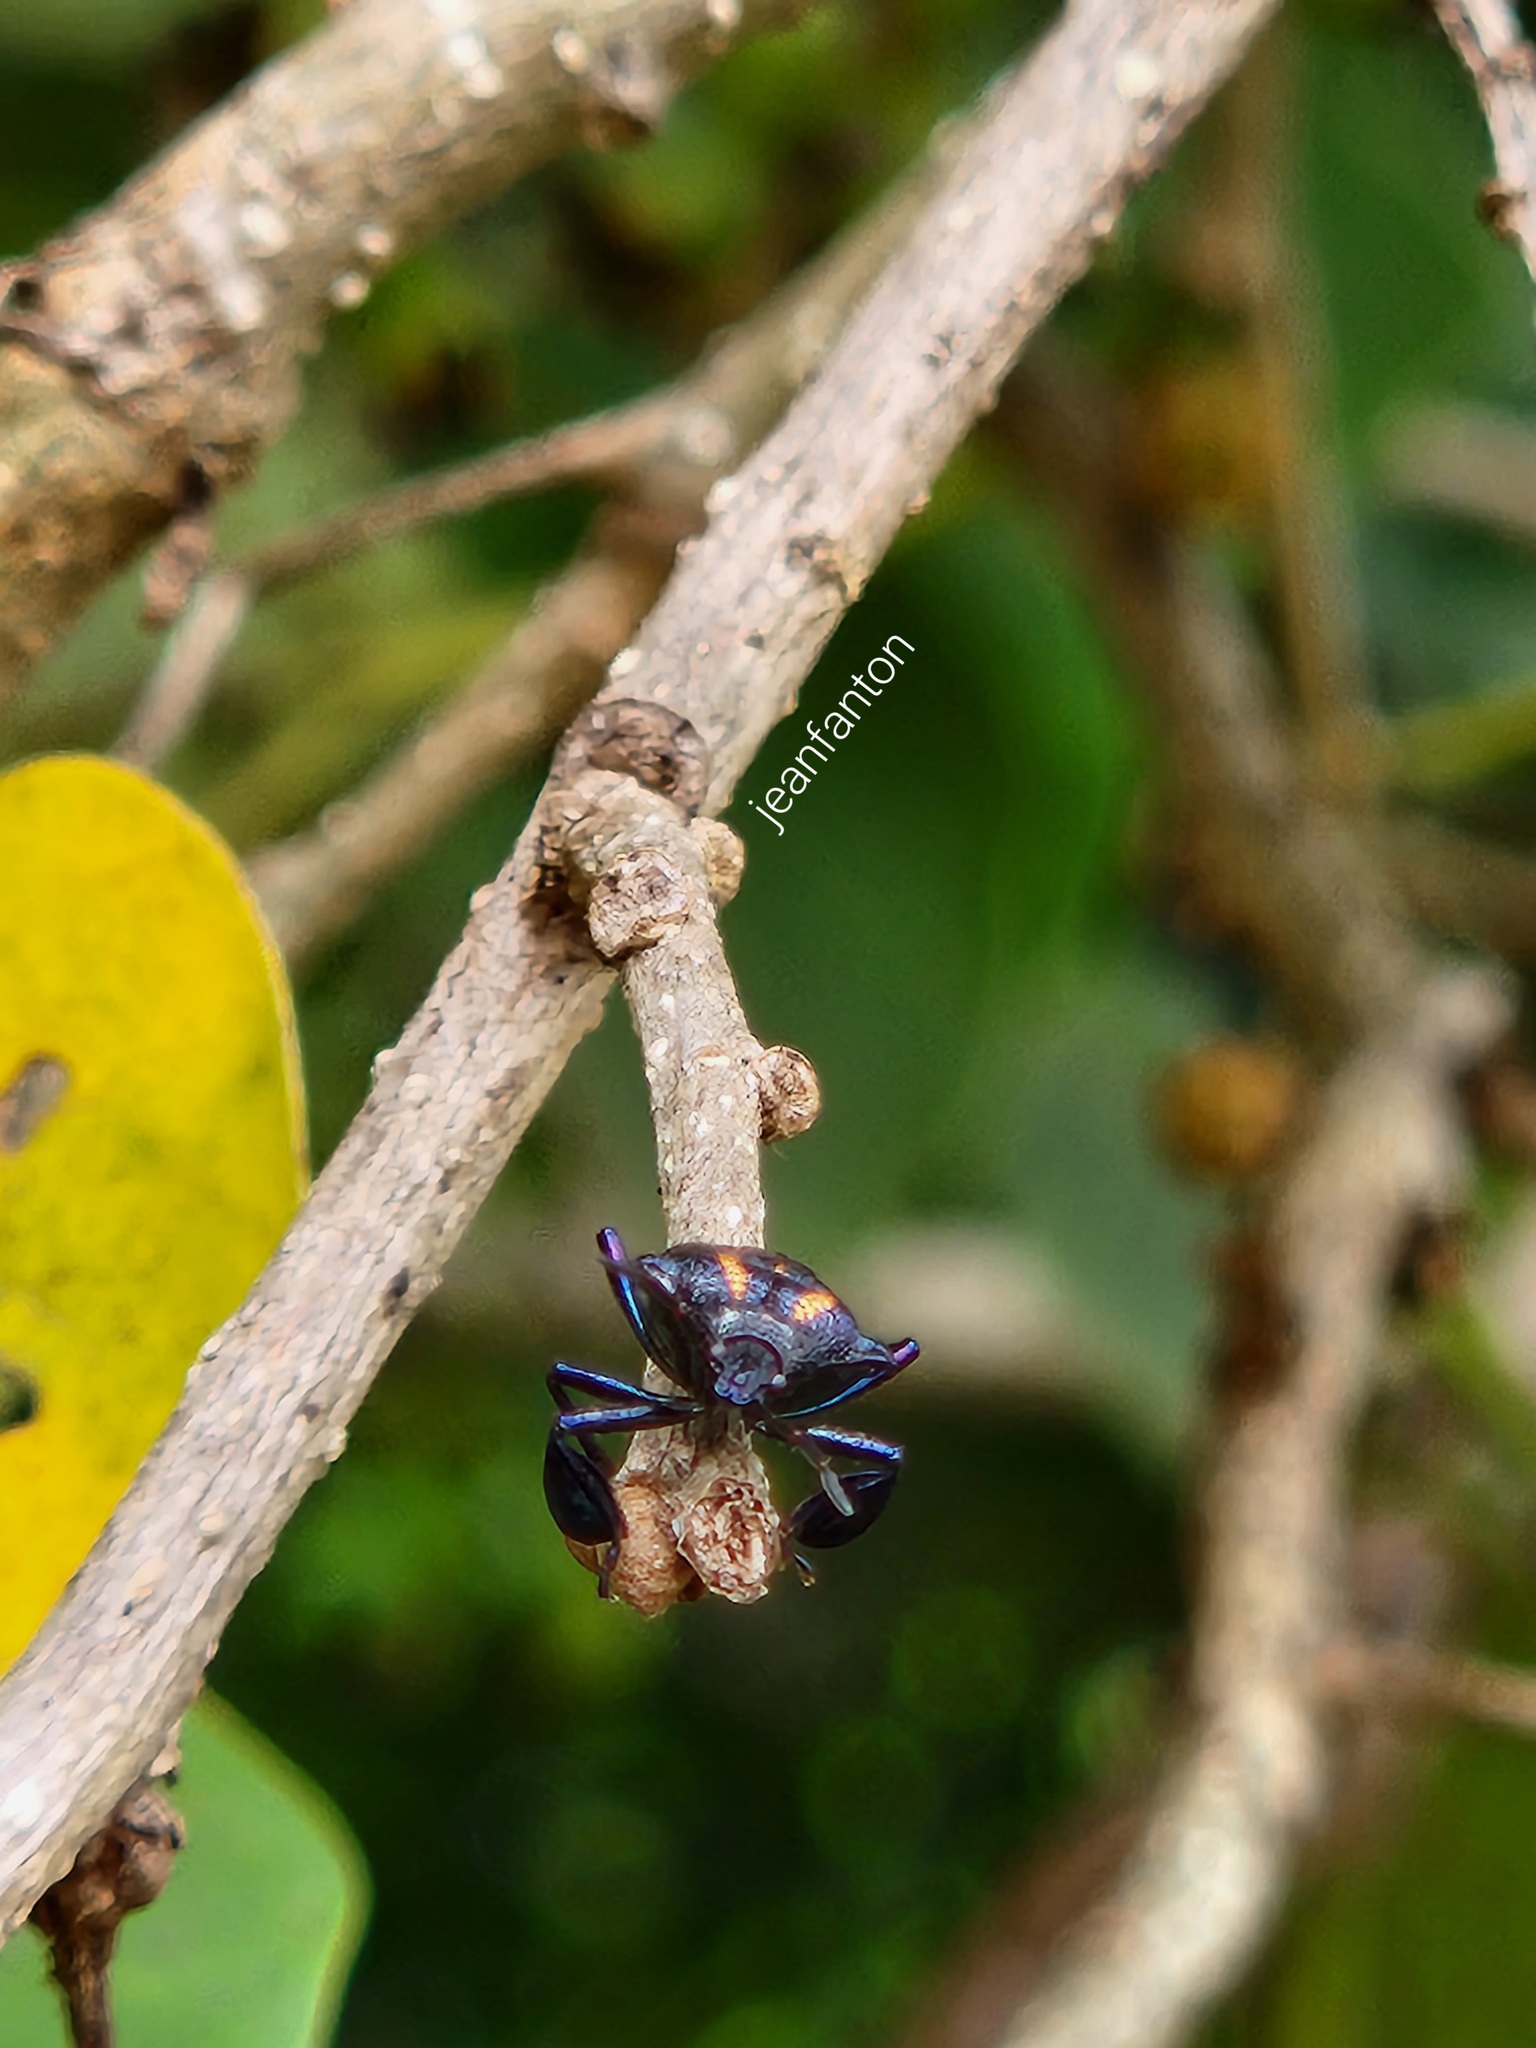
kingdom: Animalia
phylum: Arthropoda
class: Insecta
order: Hemiptera
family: Pentatomidae
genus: Heteroscelis
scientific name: Heteroscelis servillii
